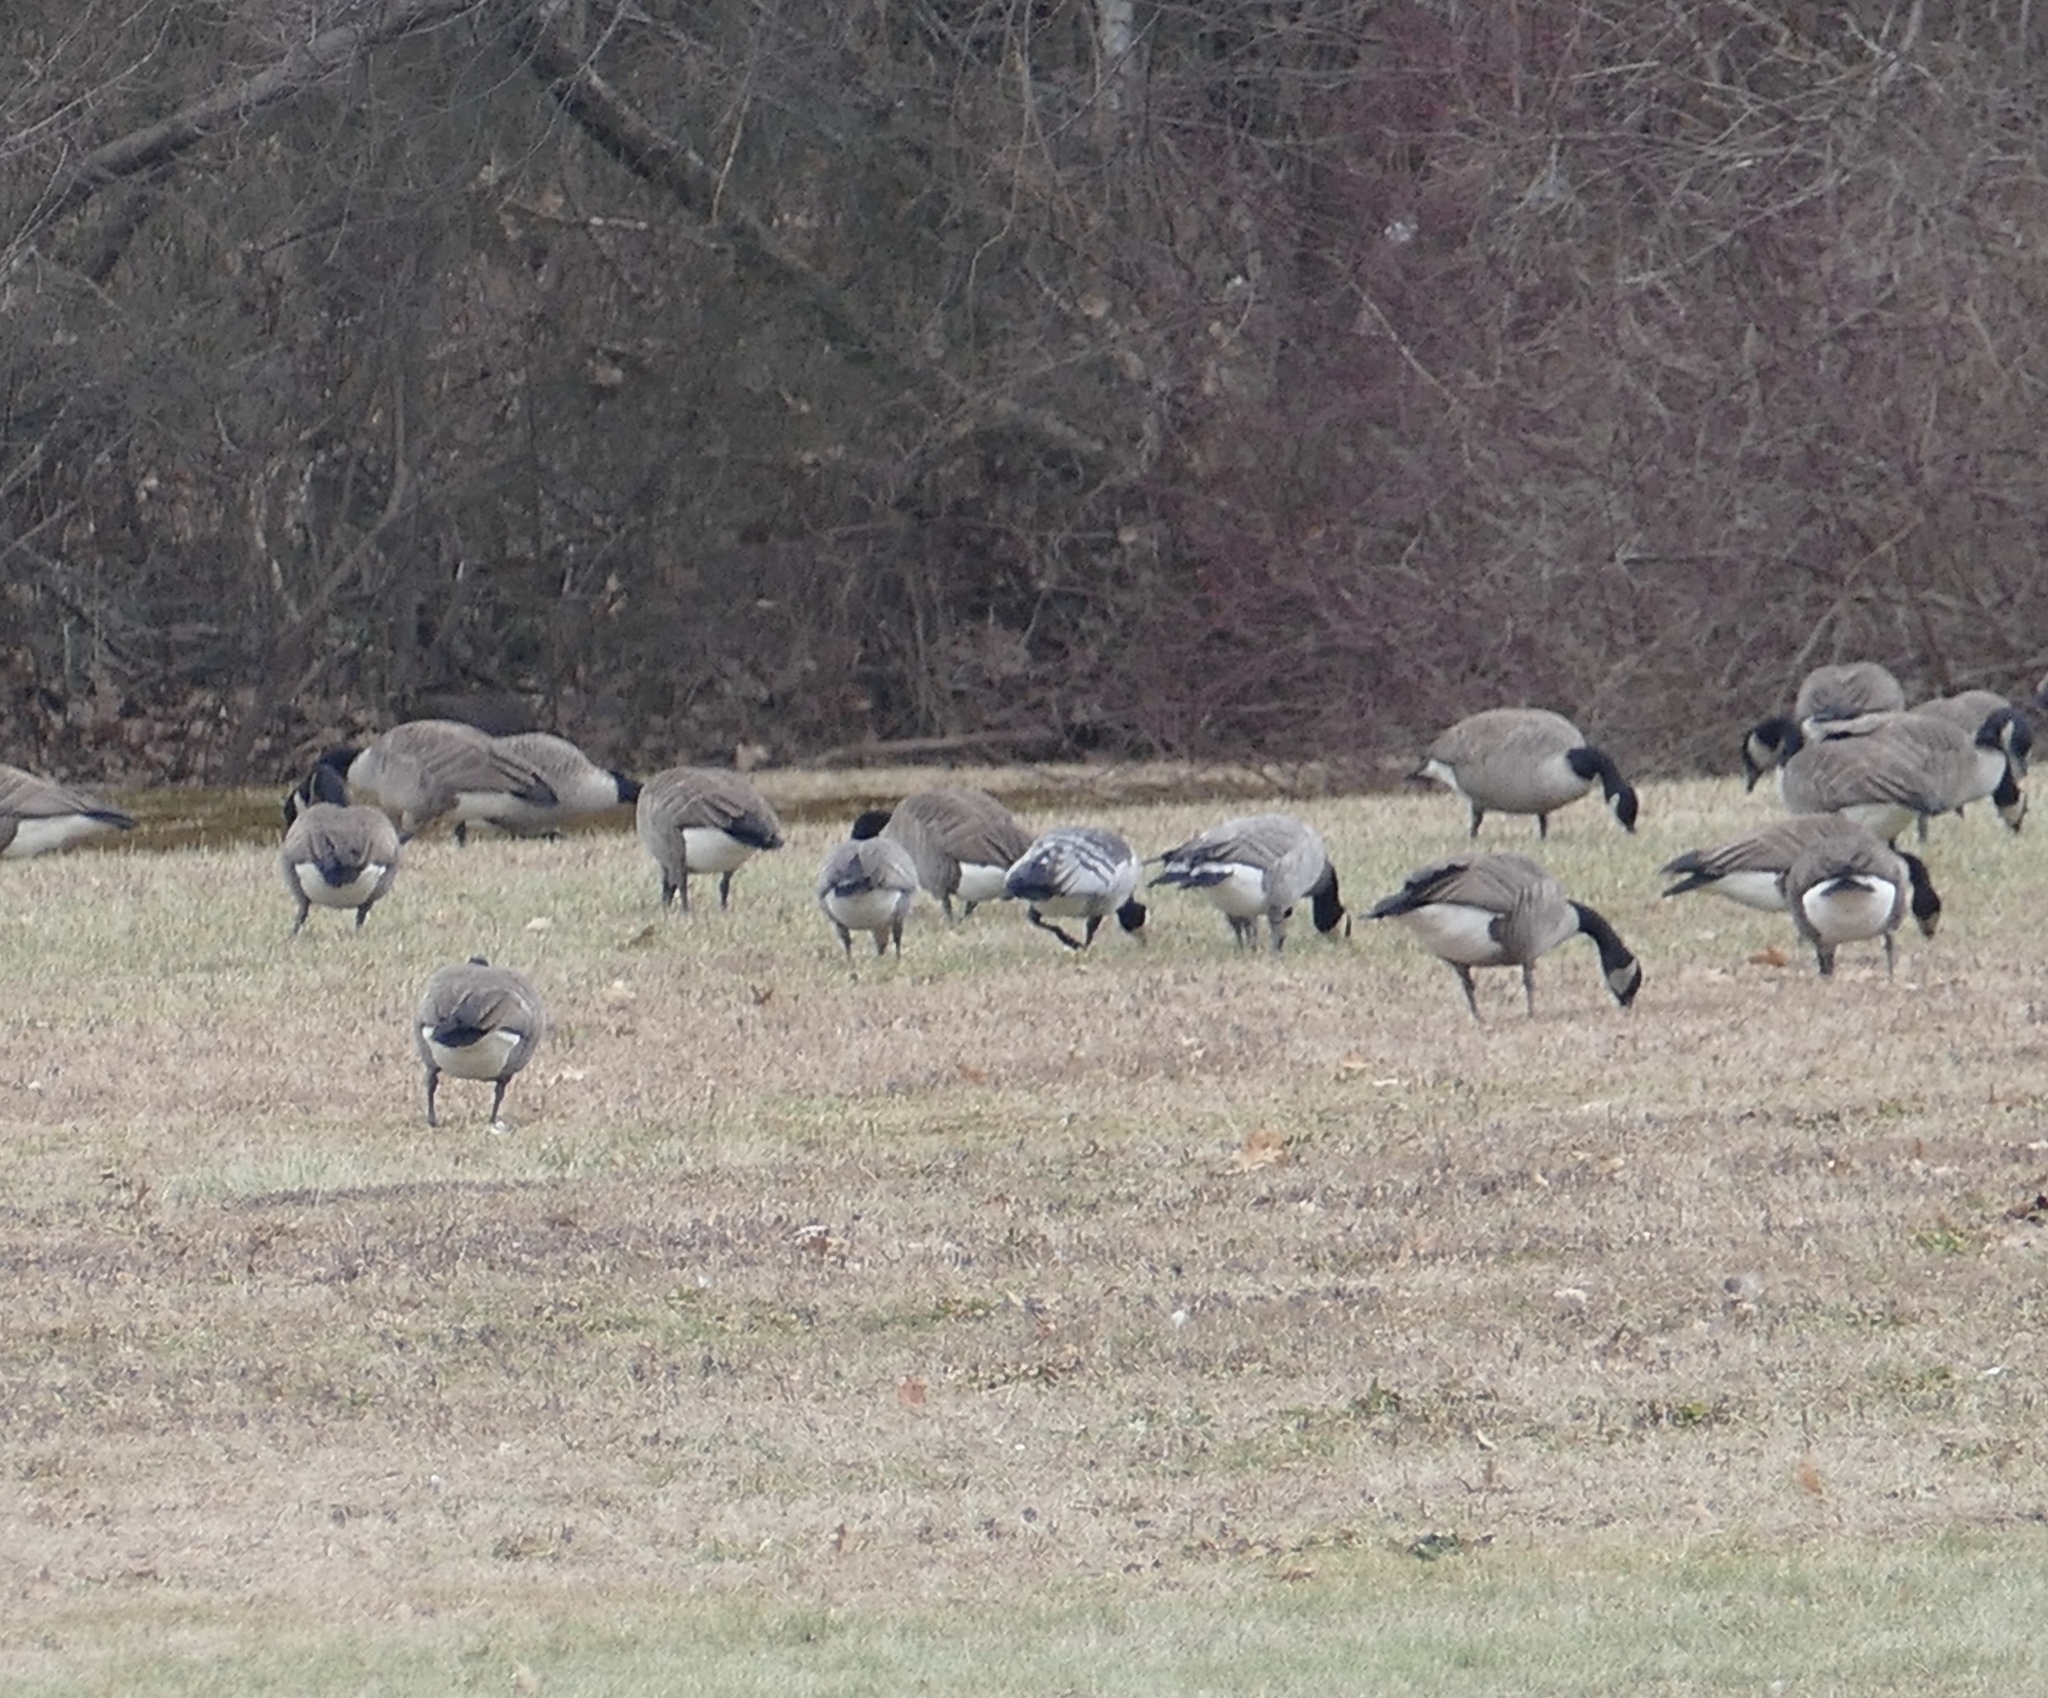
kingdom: Animalia
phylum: Chordata
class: Aves
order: Anseriformes
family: Anatidae
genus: Branta
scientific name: Branta leucopsis
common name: Barnacle goose
